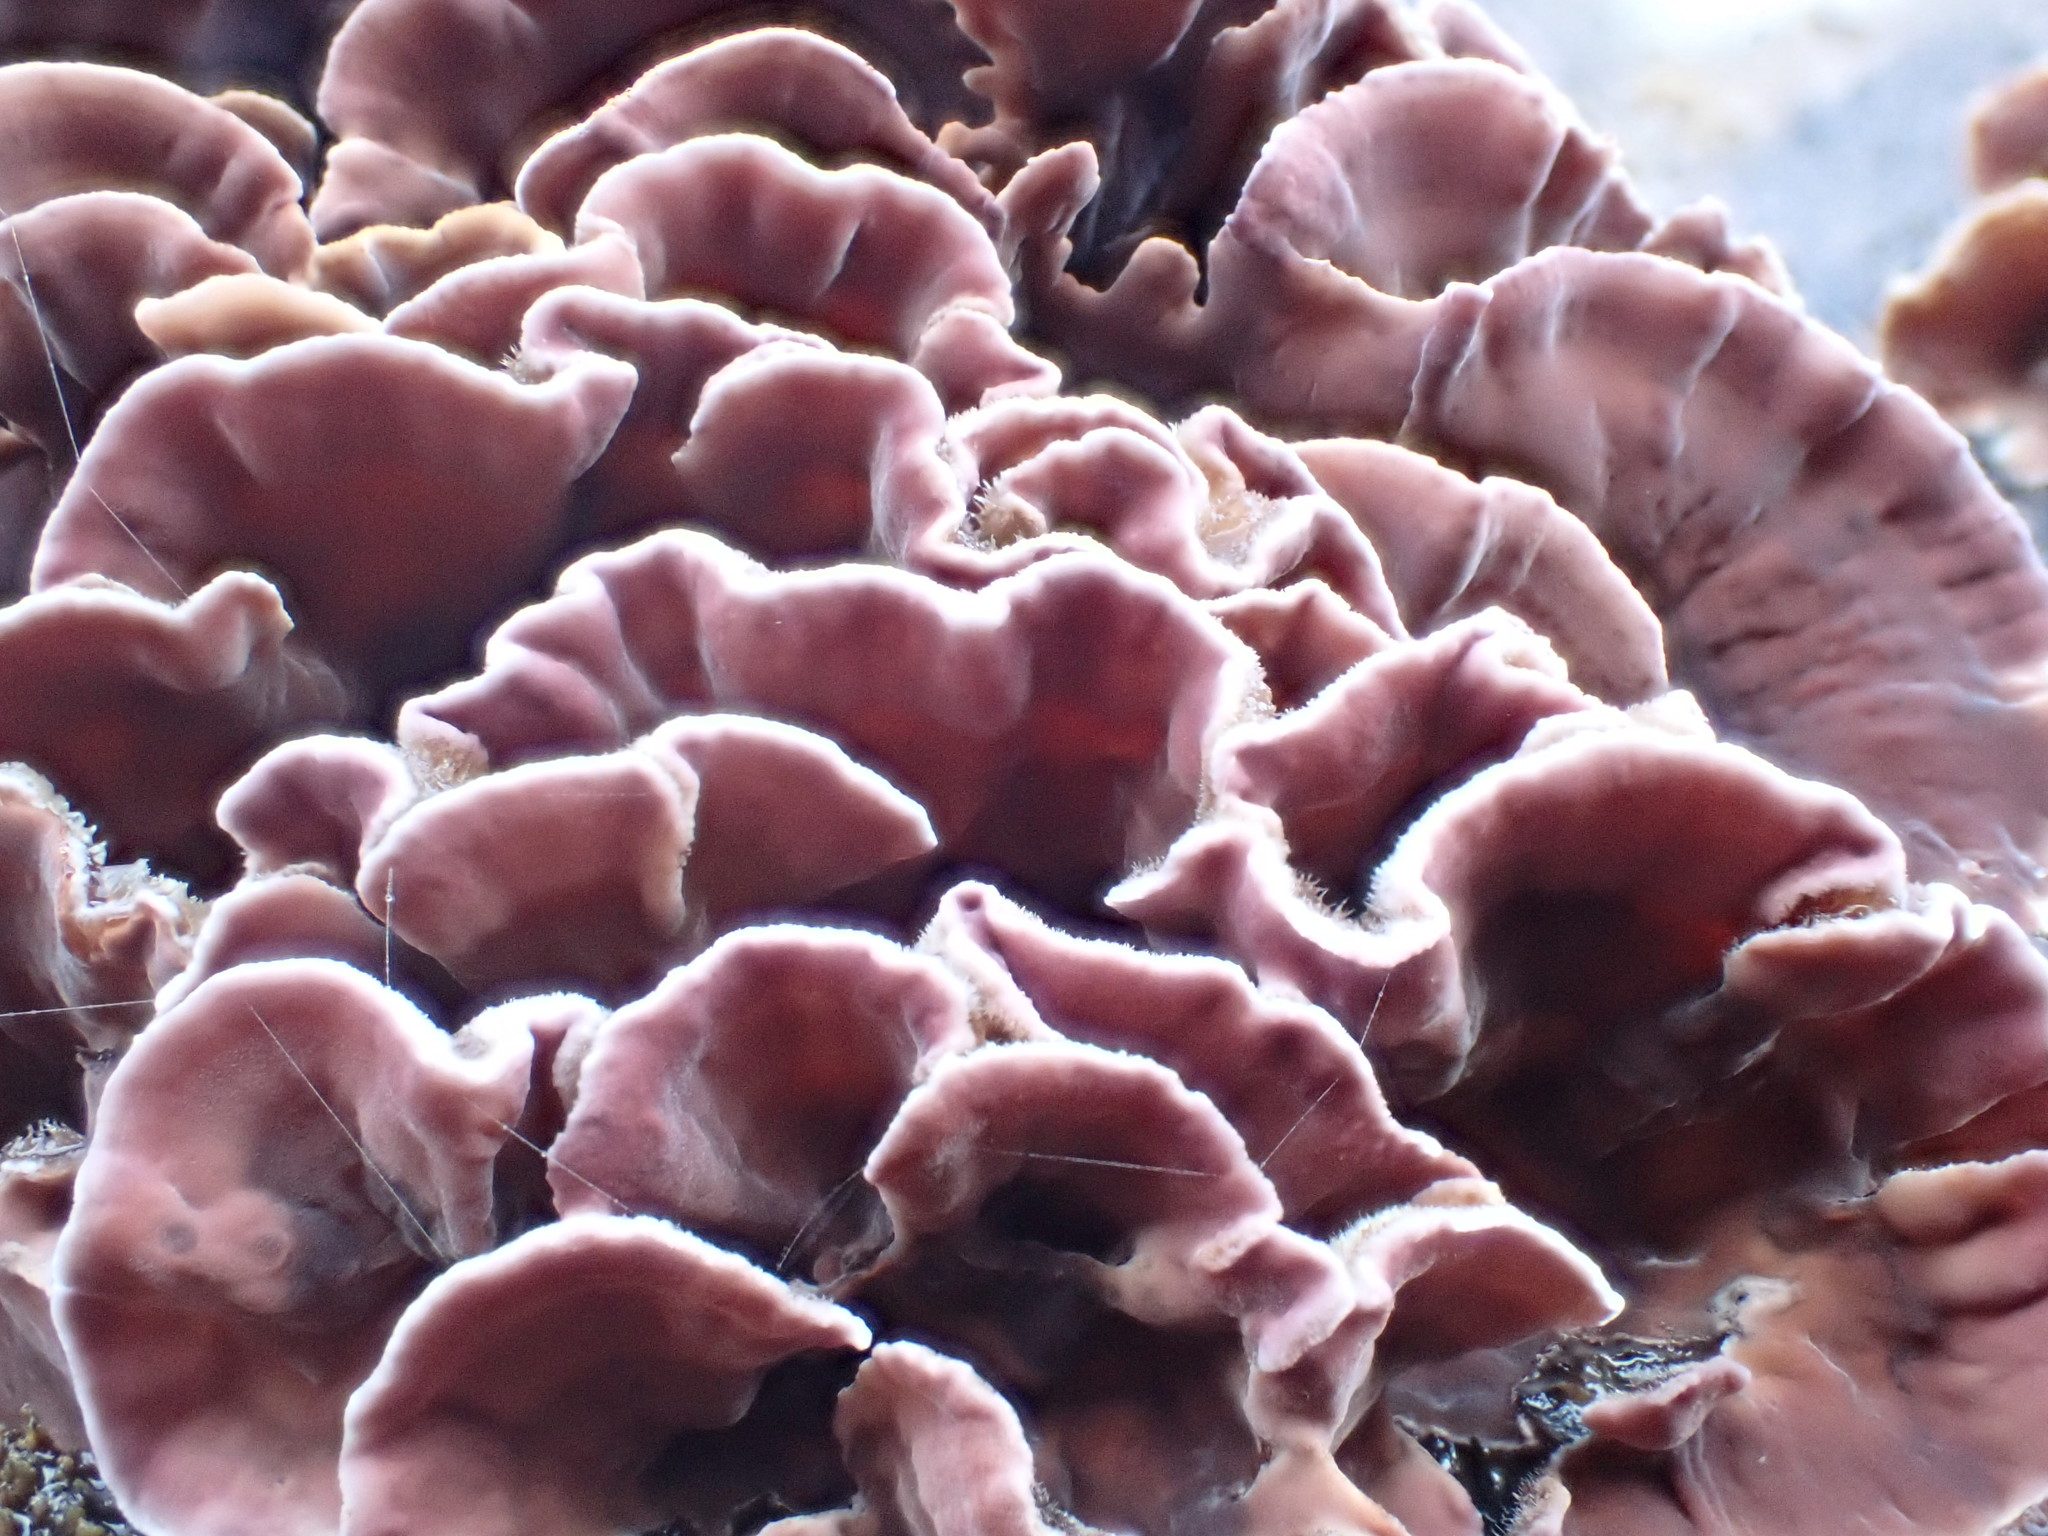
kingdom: Fungi
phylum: Basidiomycota
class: Agaricomycetes
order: Agaricales
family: Cyphellaceae
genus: Chondrostereum
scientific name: Chondrostereum purpureum
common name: Silver leaf disease
